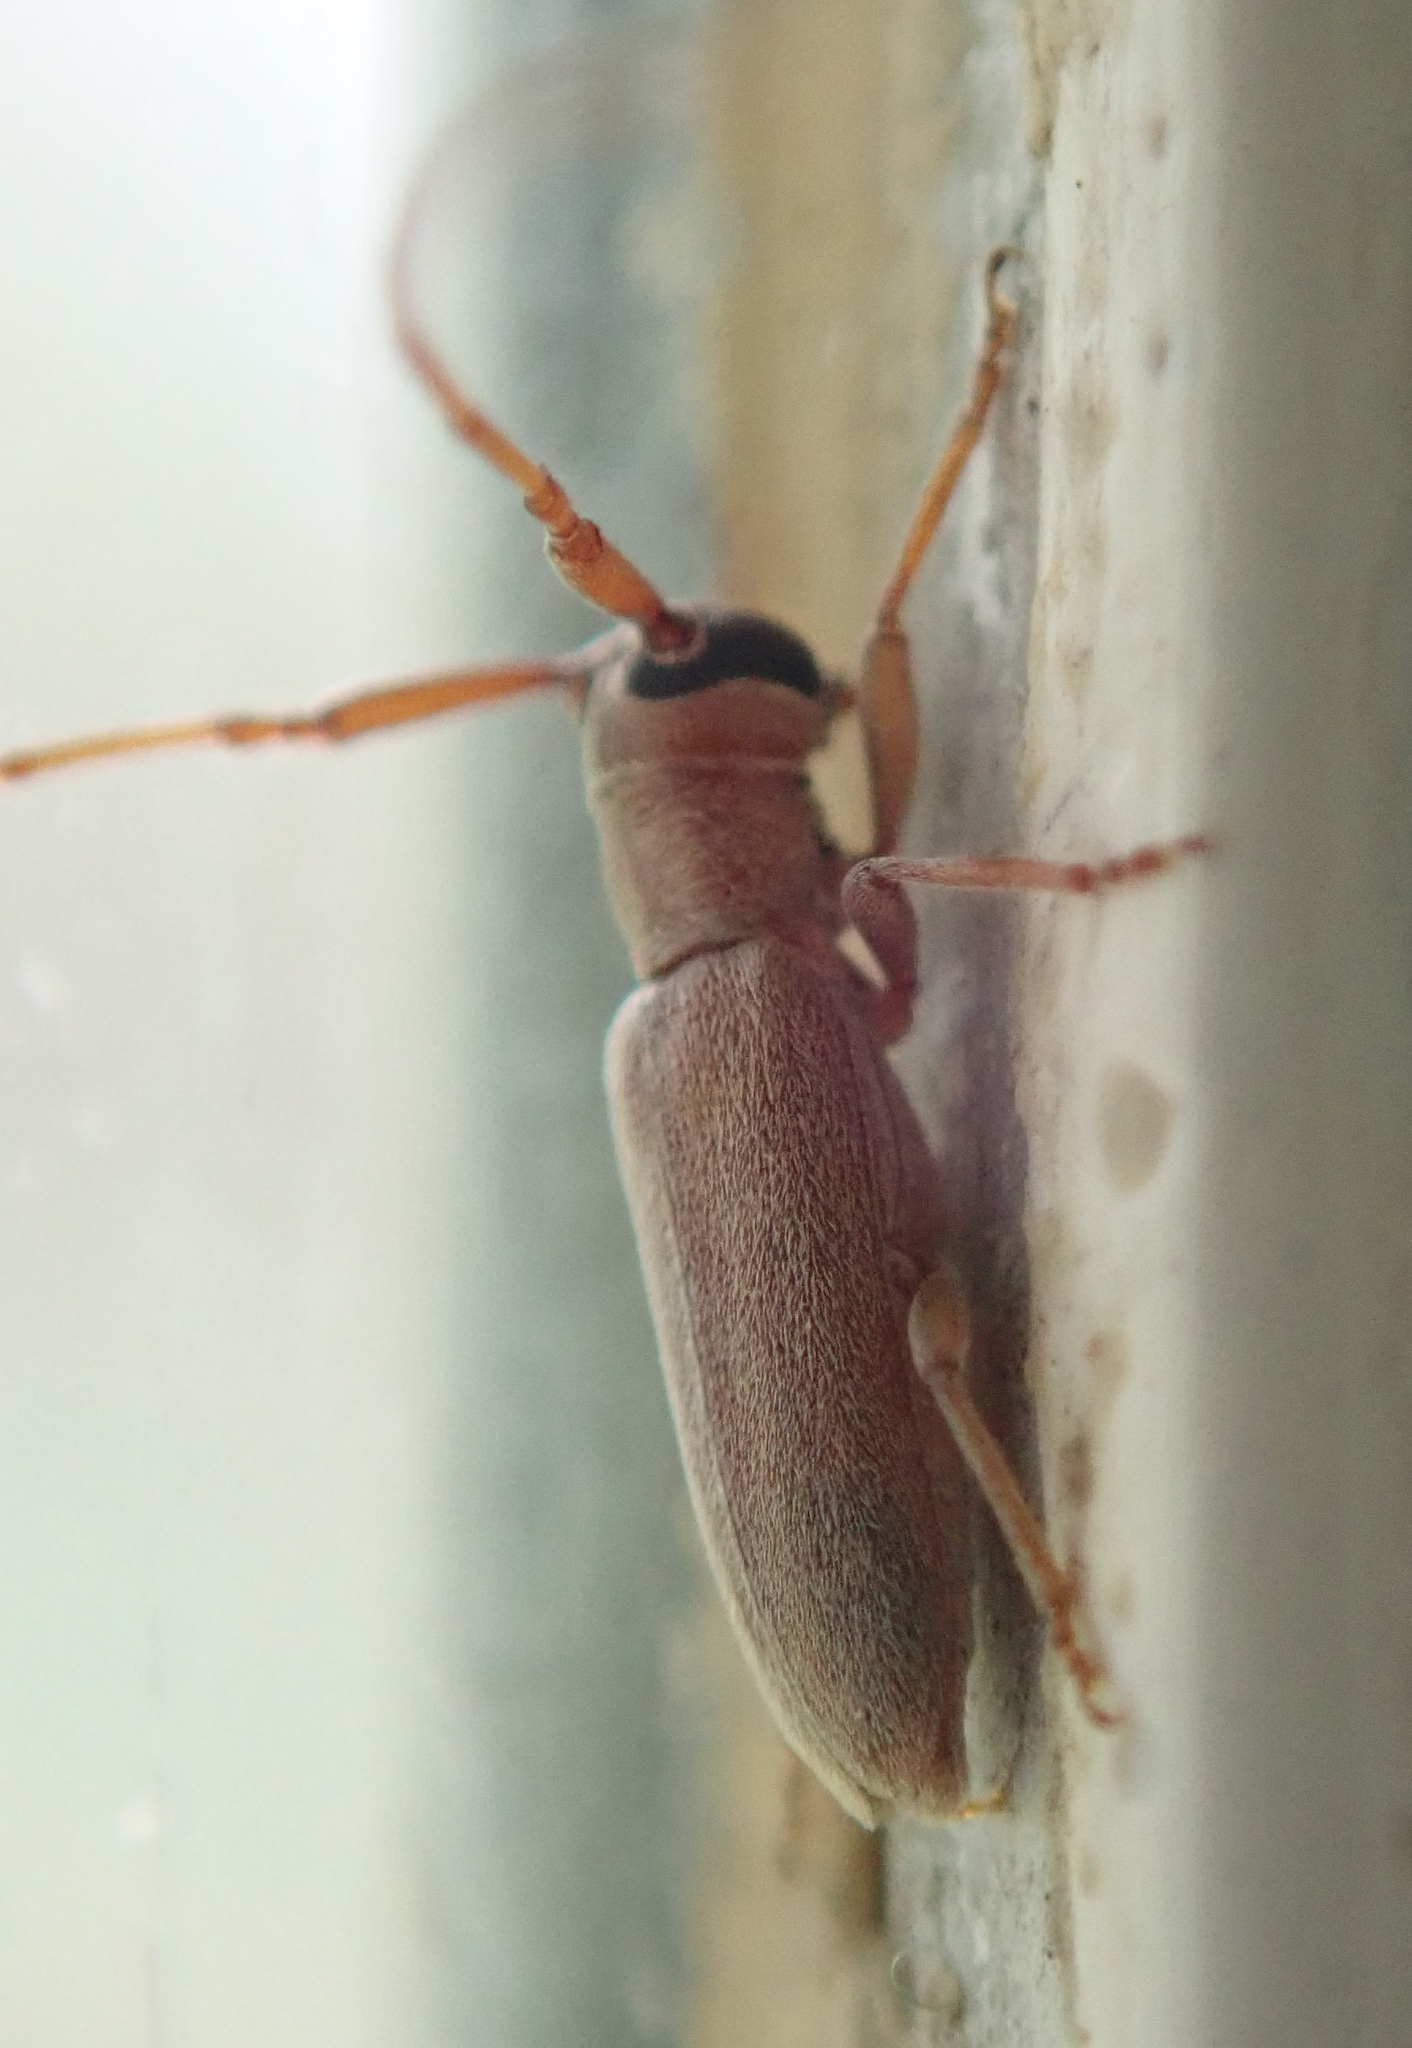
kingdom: Animalia
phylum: Arthropoda
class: Insecta
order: Coleoptera
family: Cerambycidae
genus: Eunidia
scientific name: Eunidia kivuana
